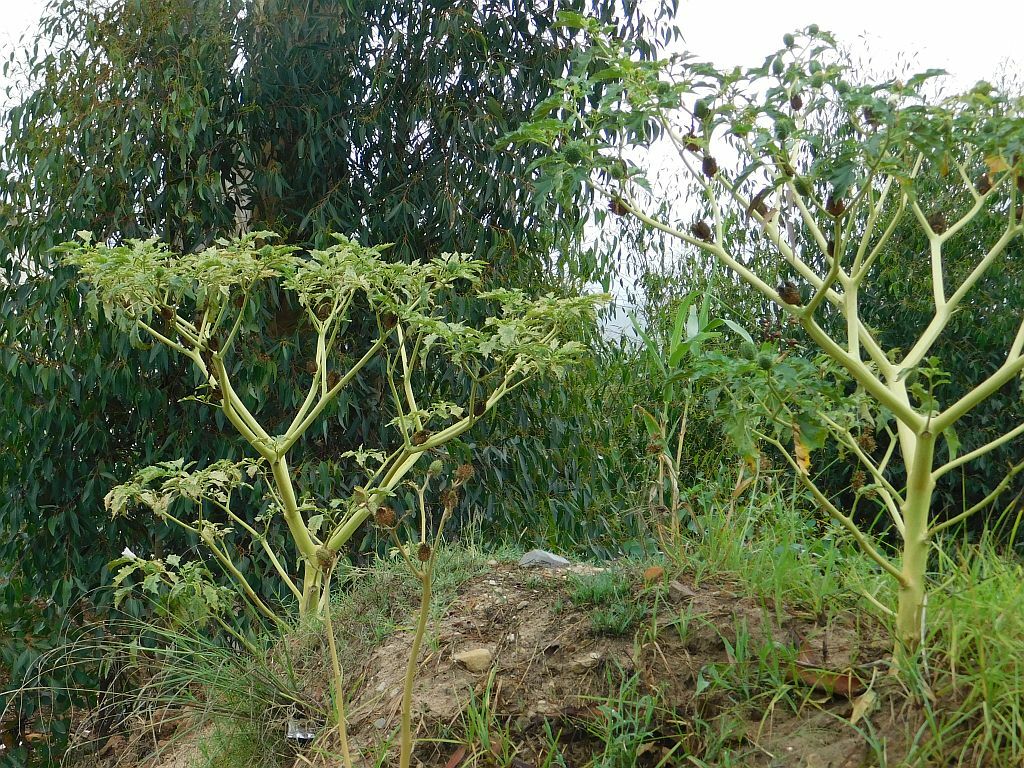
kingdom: Plantae
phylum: Tracheophyta
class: Magnoliopsida
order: Solanales
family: Solanaceae
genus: Datura
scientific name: Datura stramonium
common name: Thorn-apple
